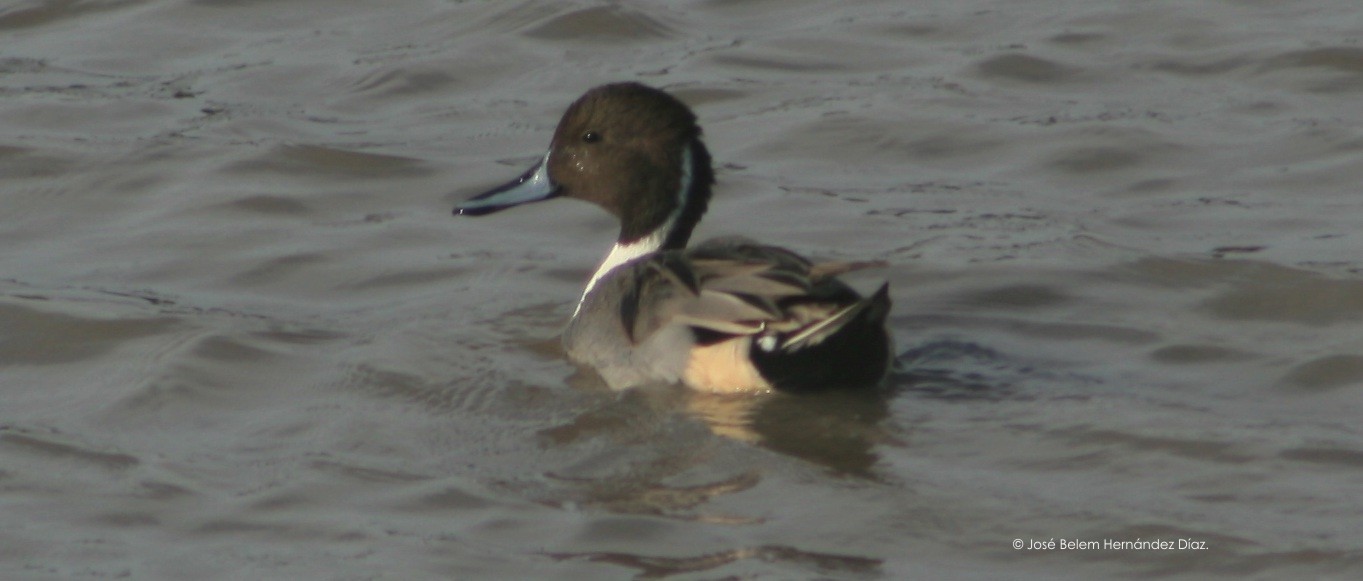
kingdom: Animalia
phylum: Chordata
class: Aves
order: Anseriformes
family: Anatidae
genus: Anas
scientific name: Anas acuta
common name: Northern pintail
